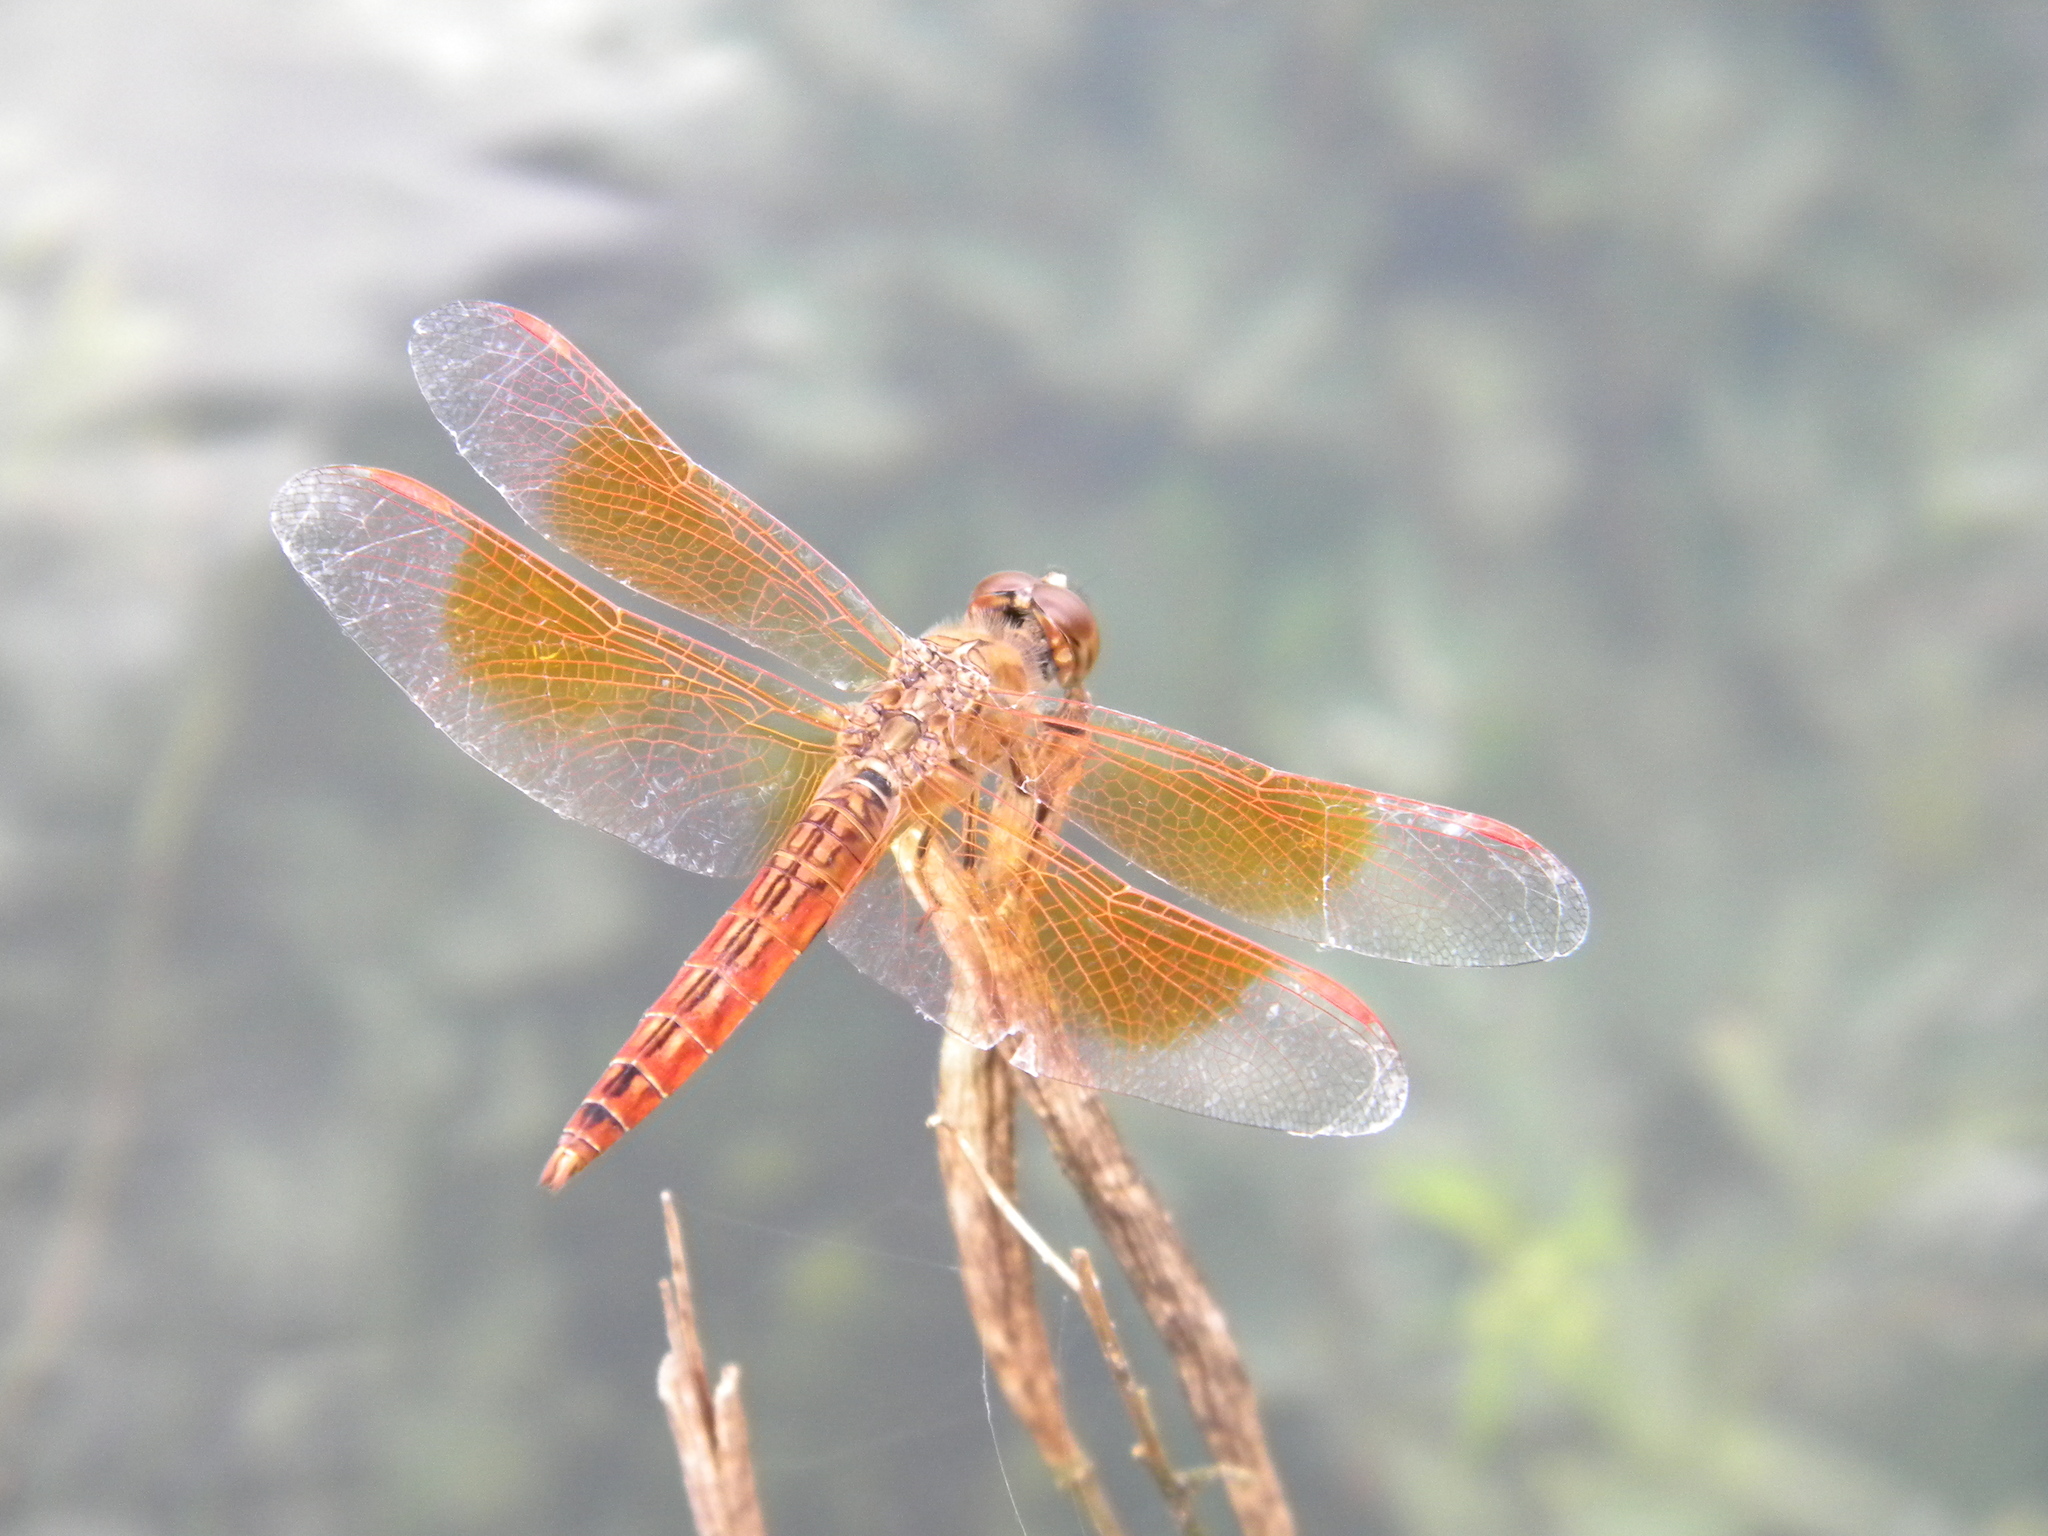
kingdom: Animalia
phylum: Arthropoda
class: Insecta
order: Odonata
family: Libellulidae
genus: Brachythemis
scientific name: Brachythemis contaminata
